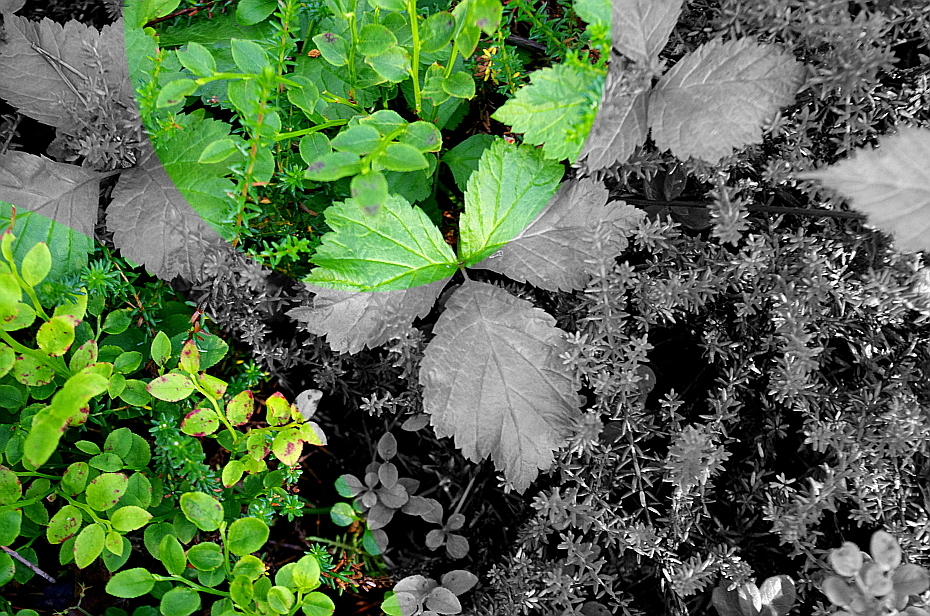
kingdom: Plantae
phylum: Tracheophyta
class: Magnoliopsida
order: Ericales
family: Ericaceae
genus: Vaccinium
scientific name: Vaccinium myrtillus
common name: Bilberry
